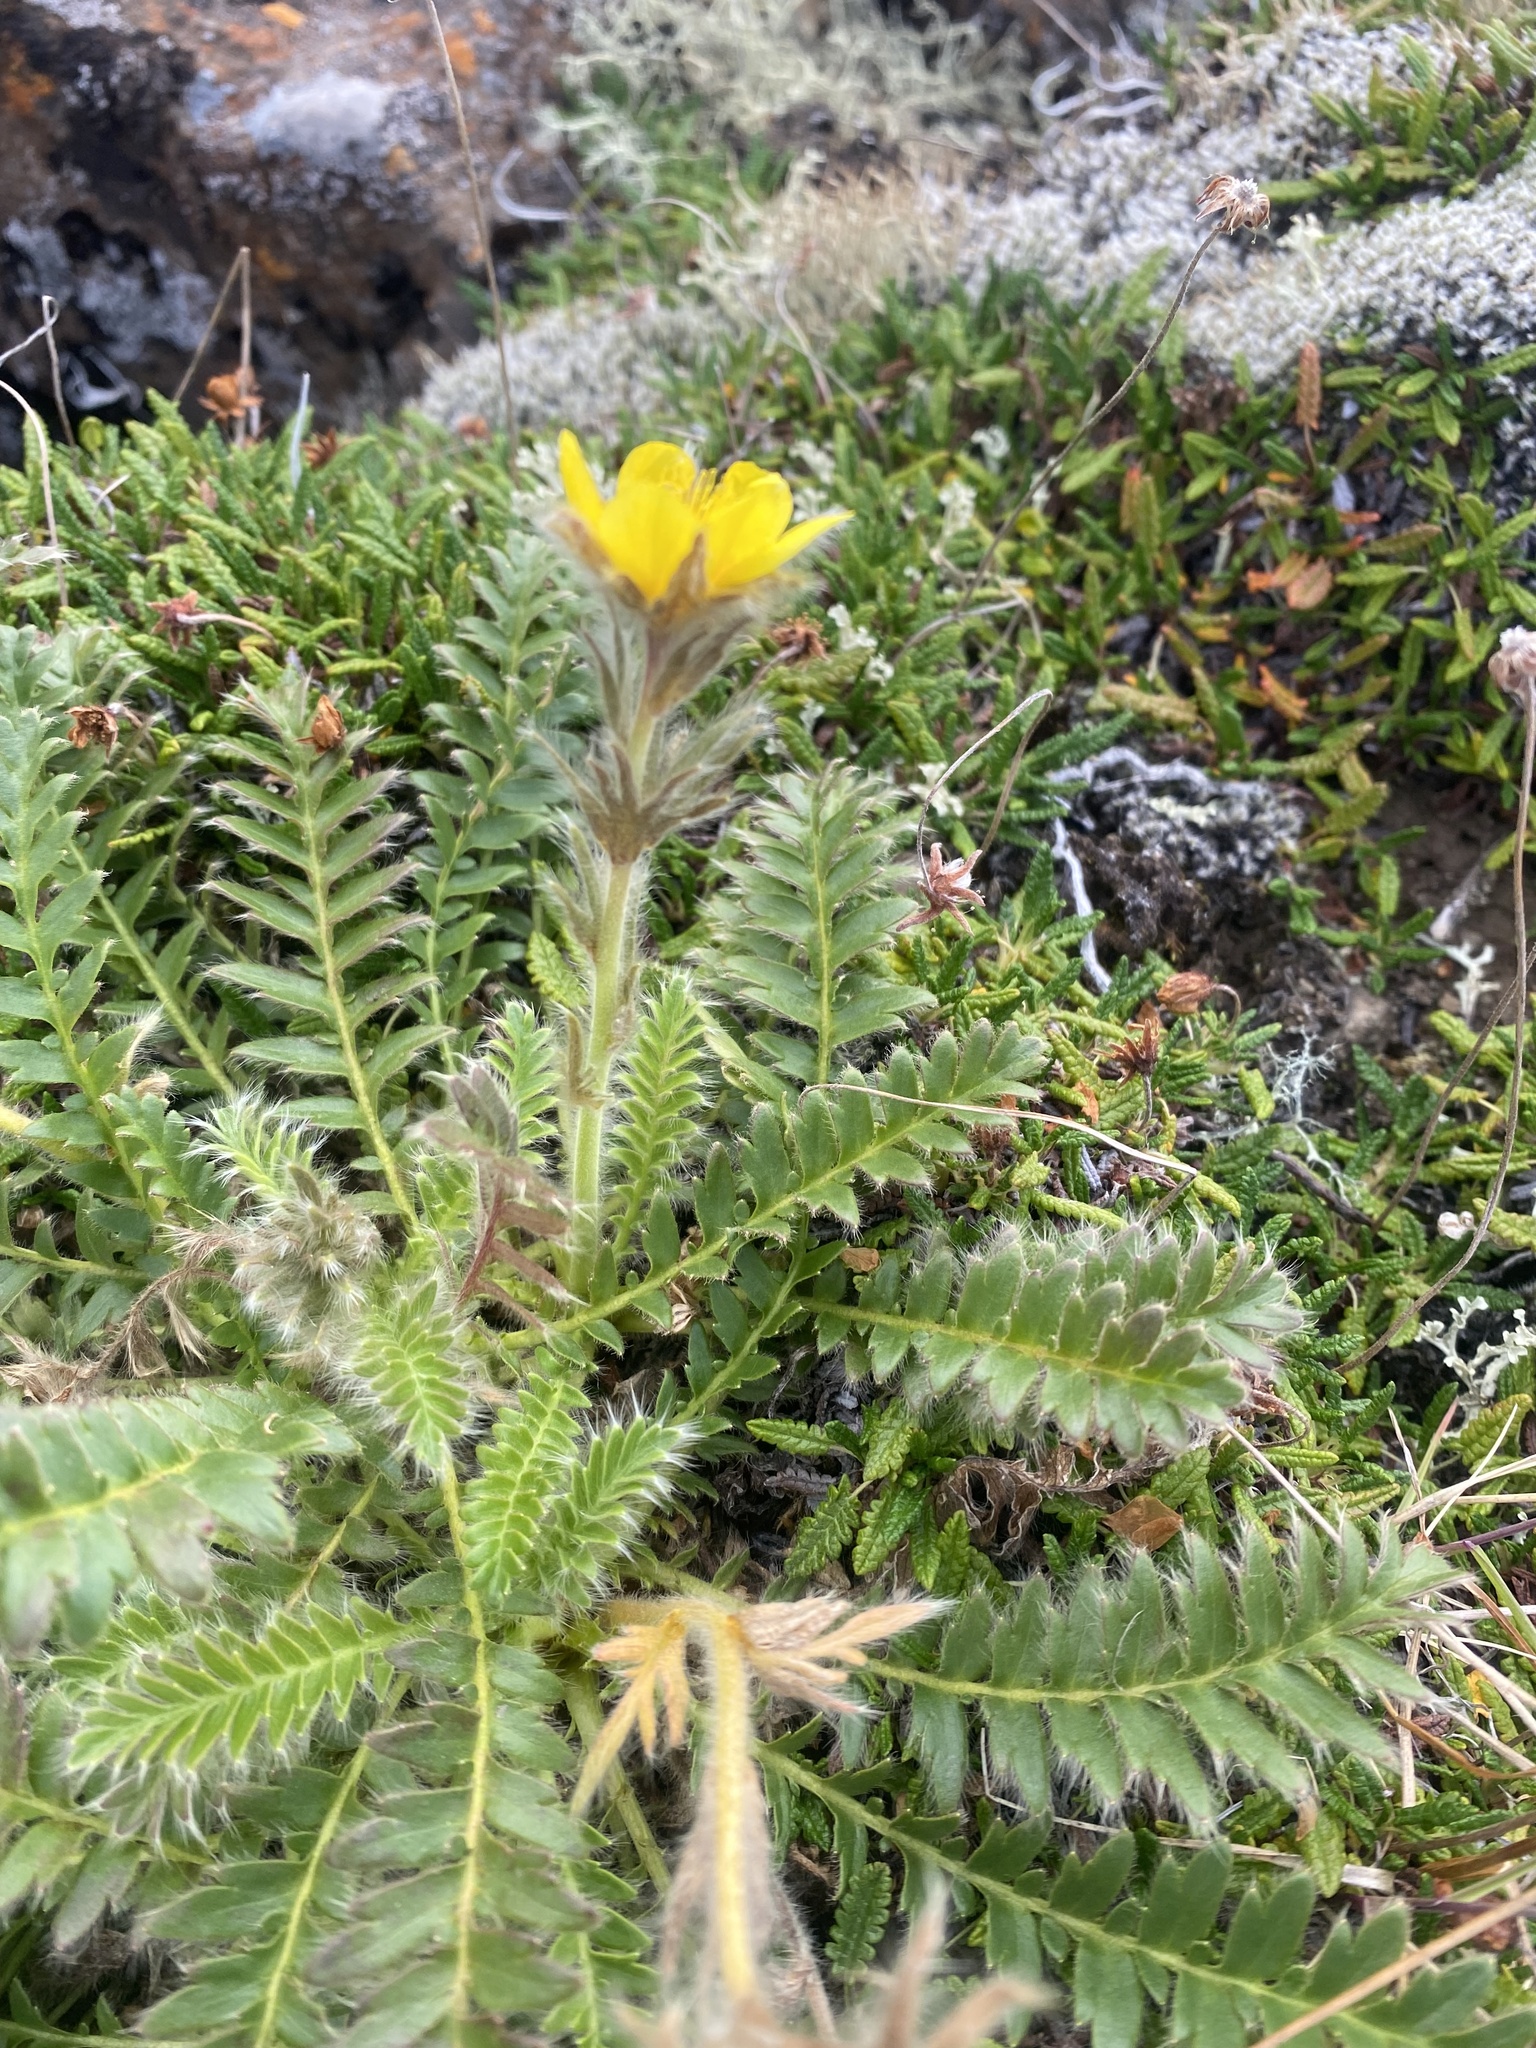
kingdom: Plantae
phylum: Tracheophyta
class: Magnoliopsida
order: Rosales
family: Rosaceae
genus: Geum
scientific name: Geum glaciale
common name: Glacier avens
